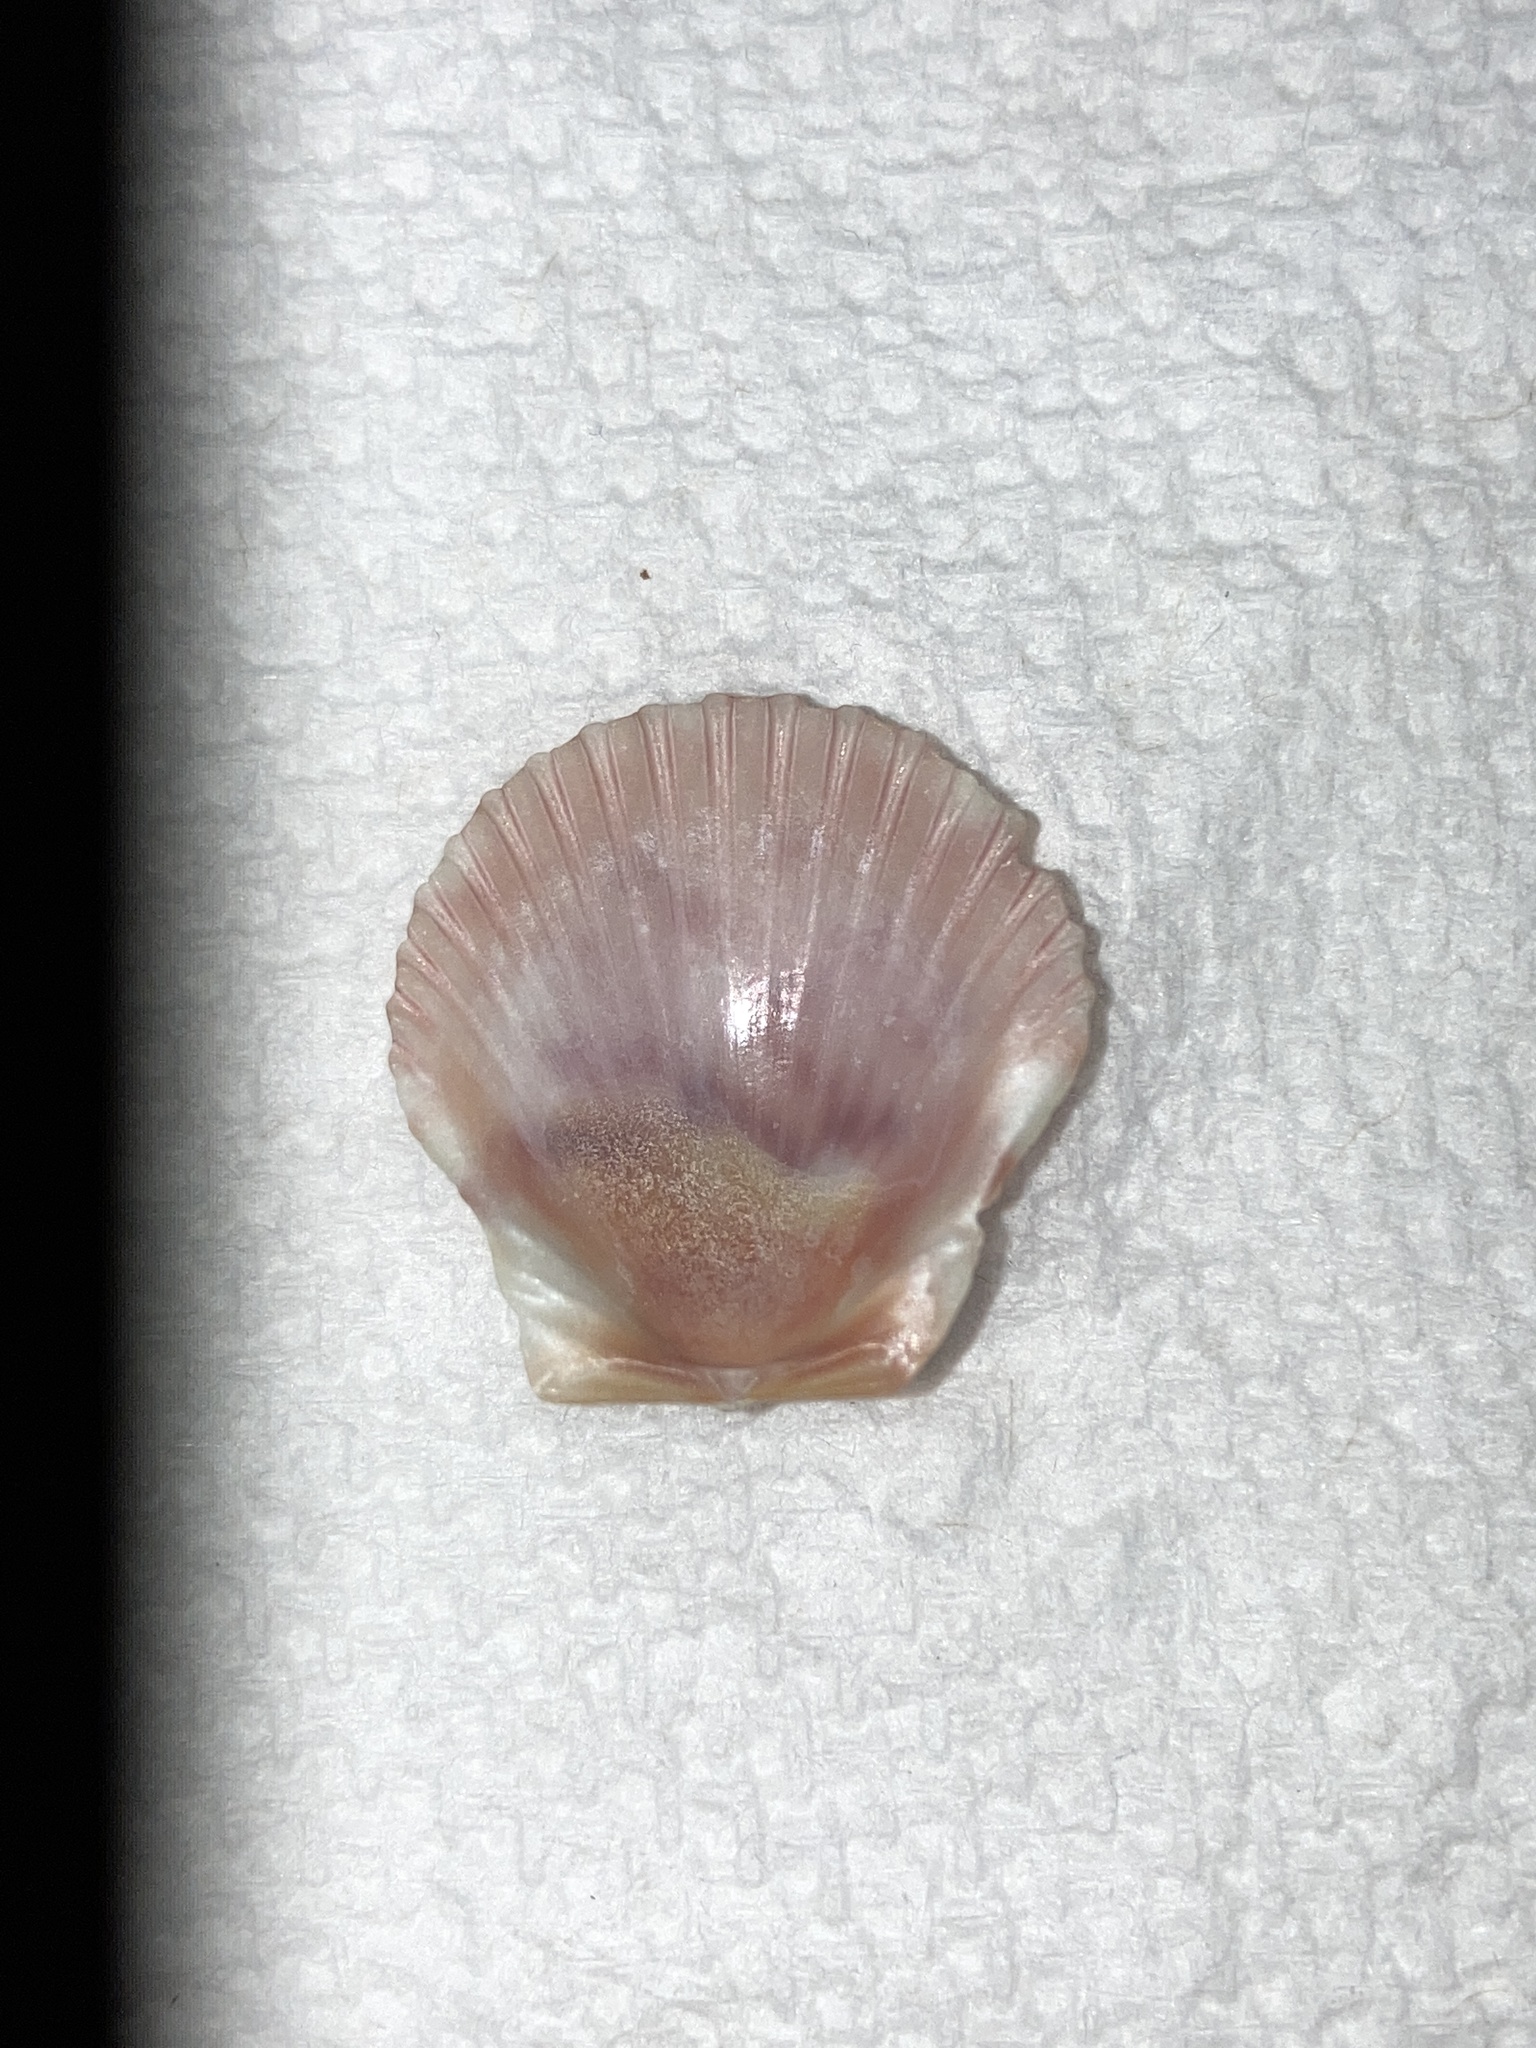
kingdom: Animalia
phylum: Mollusca
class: Bivalvia
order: Pectinida
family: Pectinidae
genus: Argopecten
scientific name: Argopecten gibbus
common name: Atlantic calico scallop
